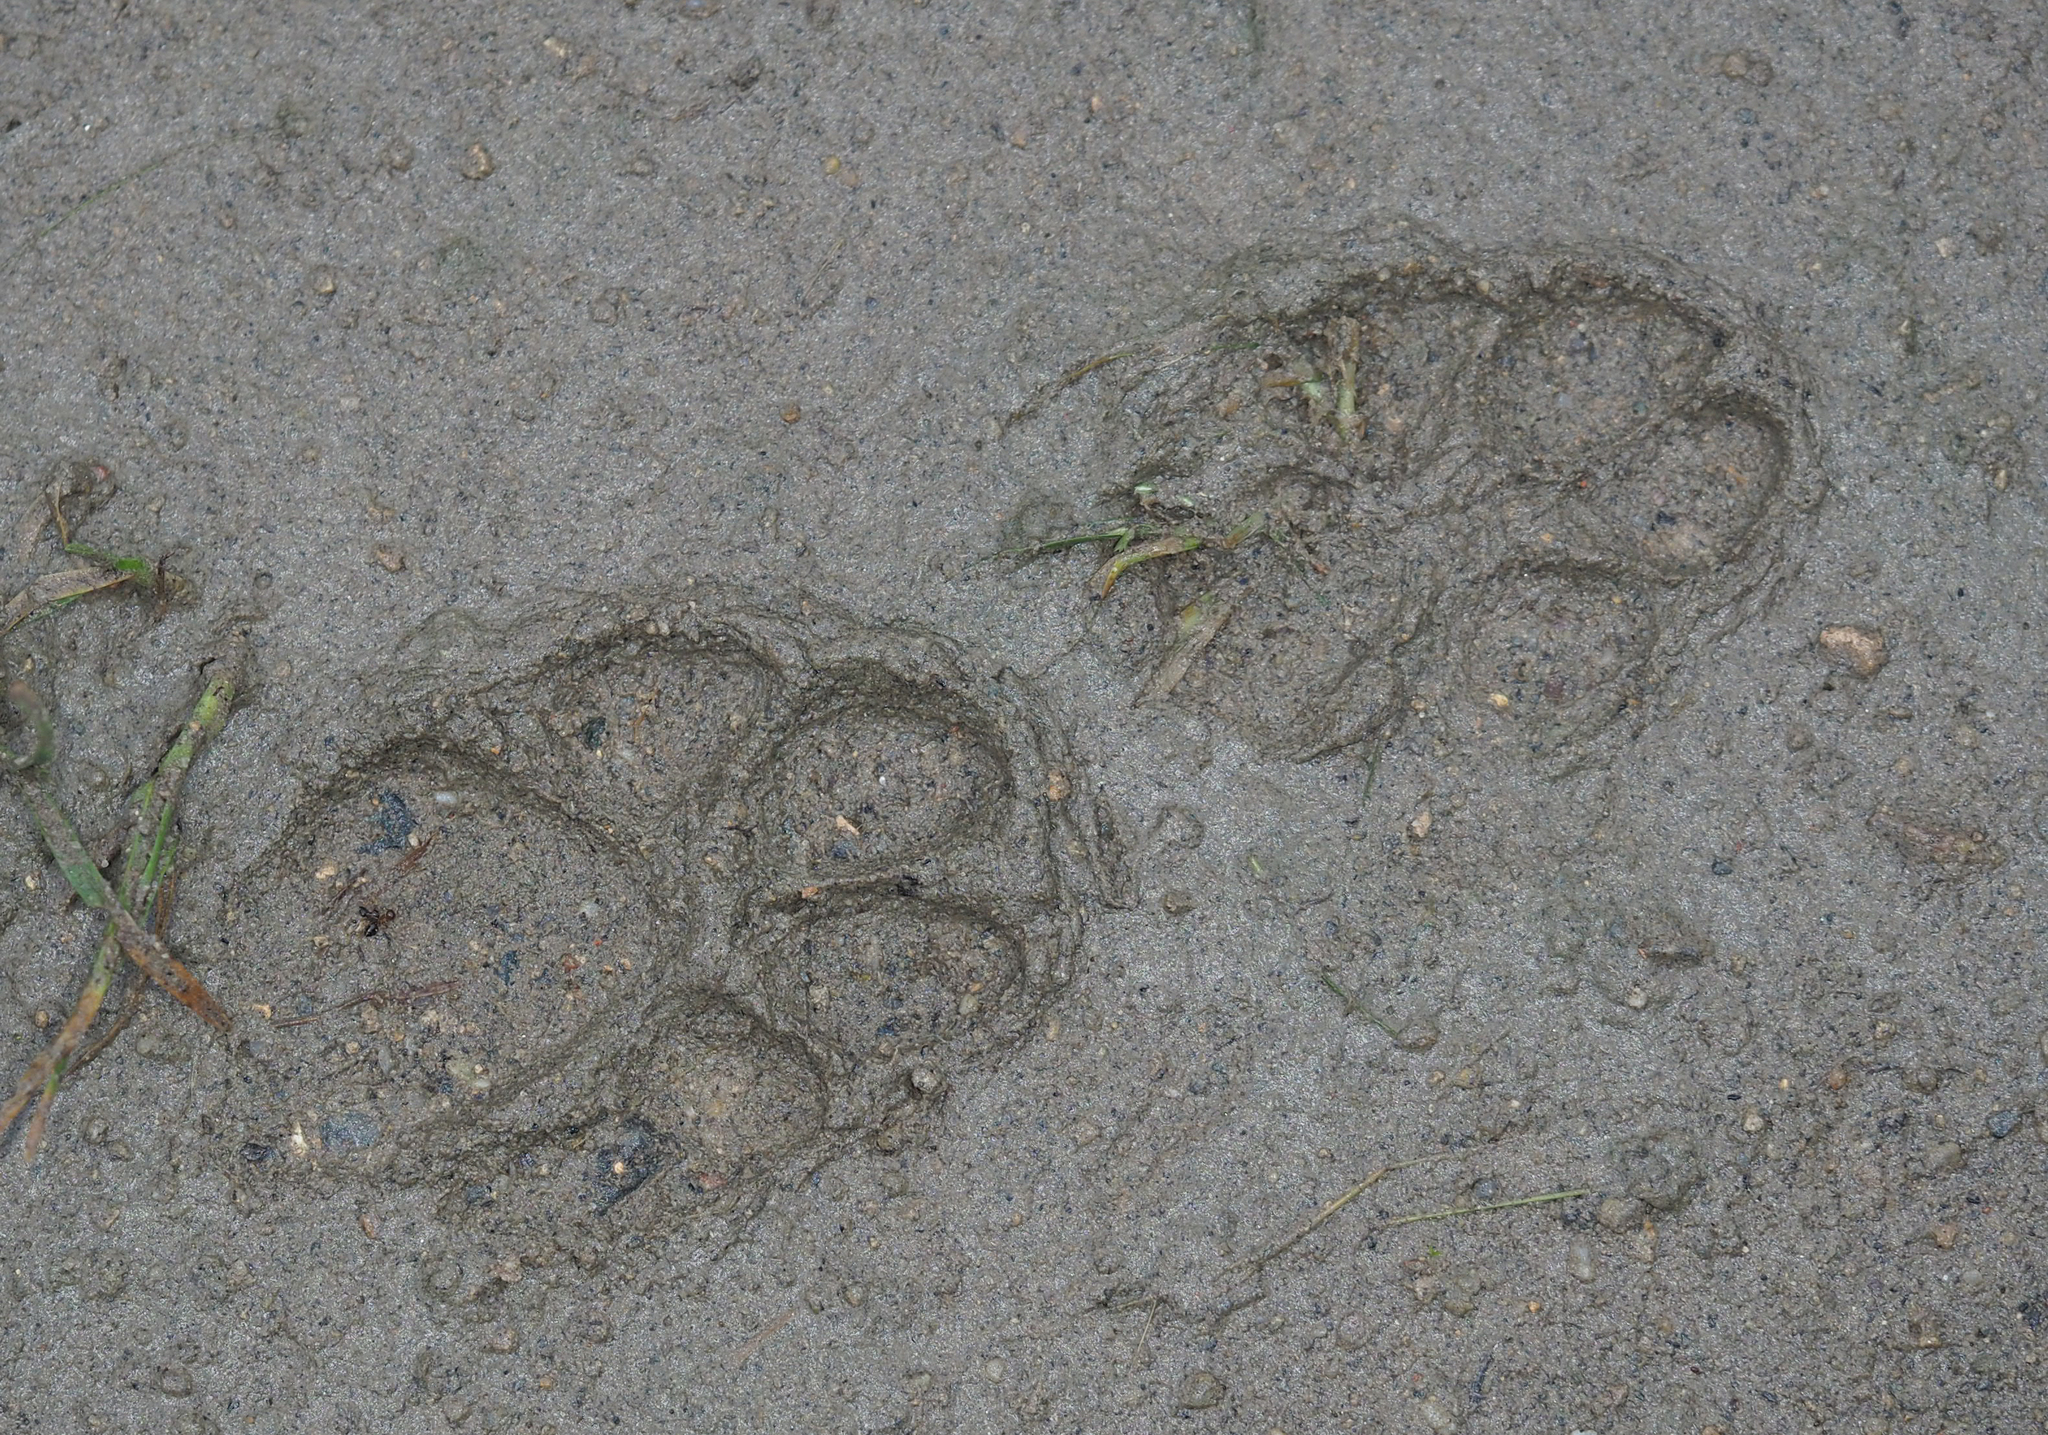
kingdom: Animalia
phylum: Chordata
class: Mammalia
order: Carnivora
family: Canidae
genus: Canis
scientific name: Canis latrans
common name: Coyote
